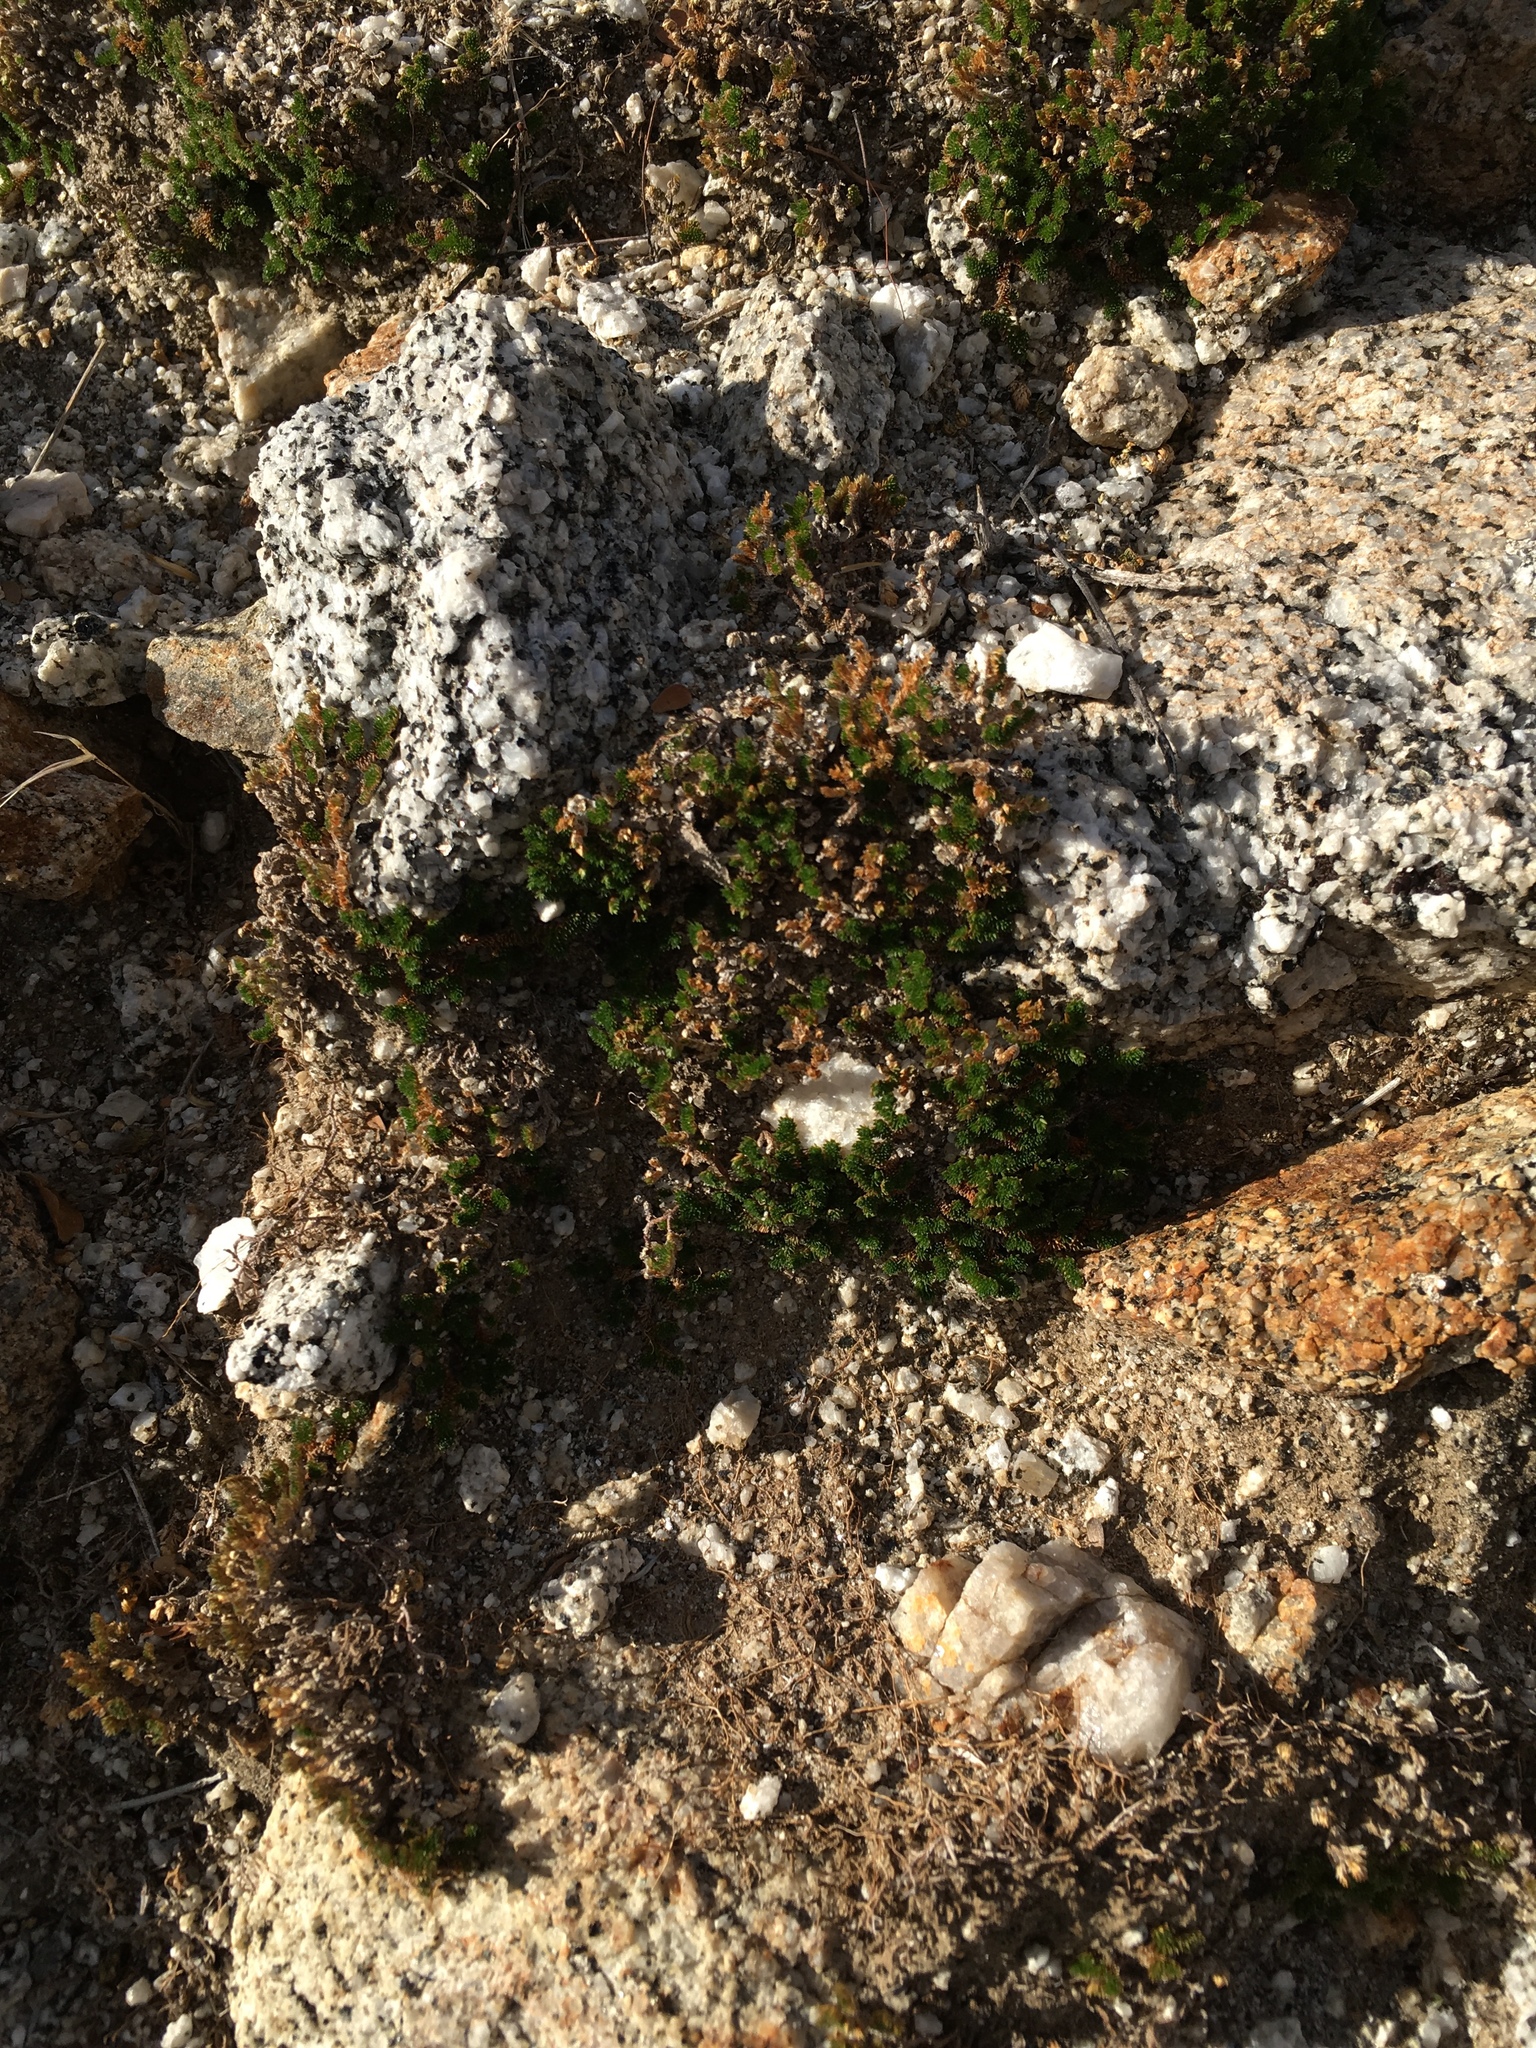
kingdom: Plantae
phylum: Tracheophyta
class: Lycopodiopsida
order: Selaginellales
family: Selaginellaceae
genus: Selaginella
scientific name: Selaginella eremophila
